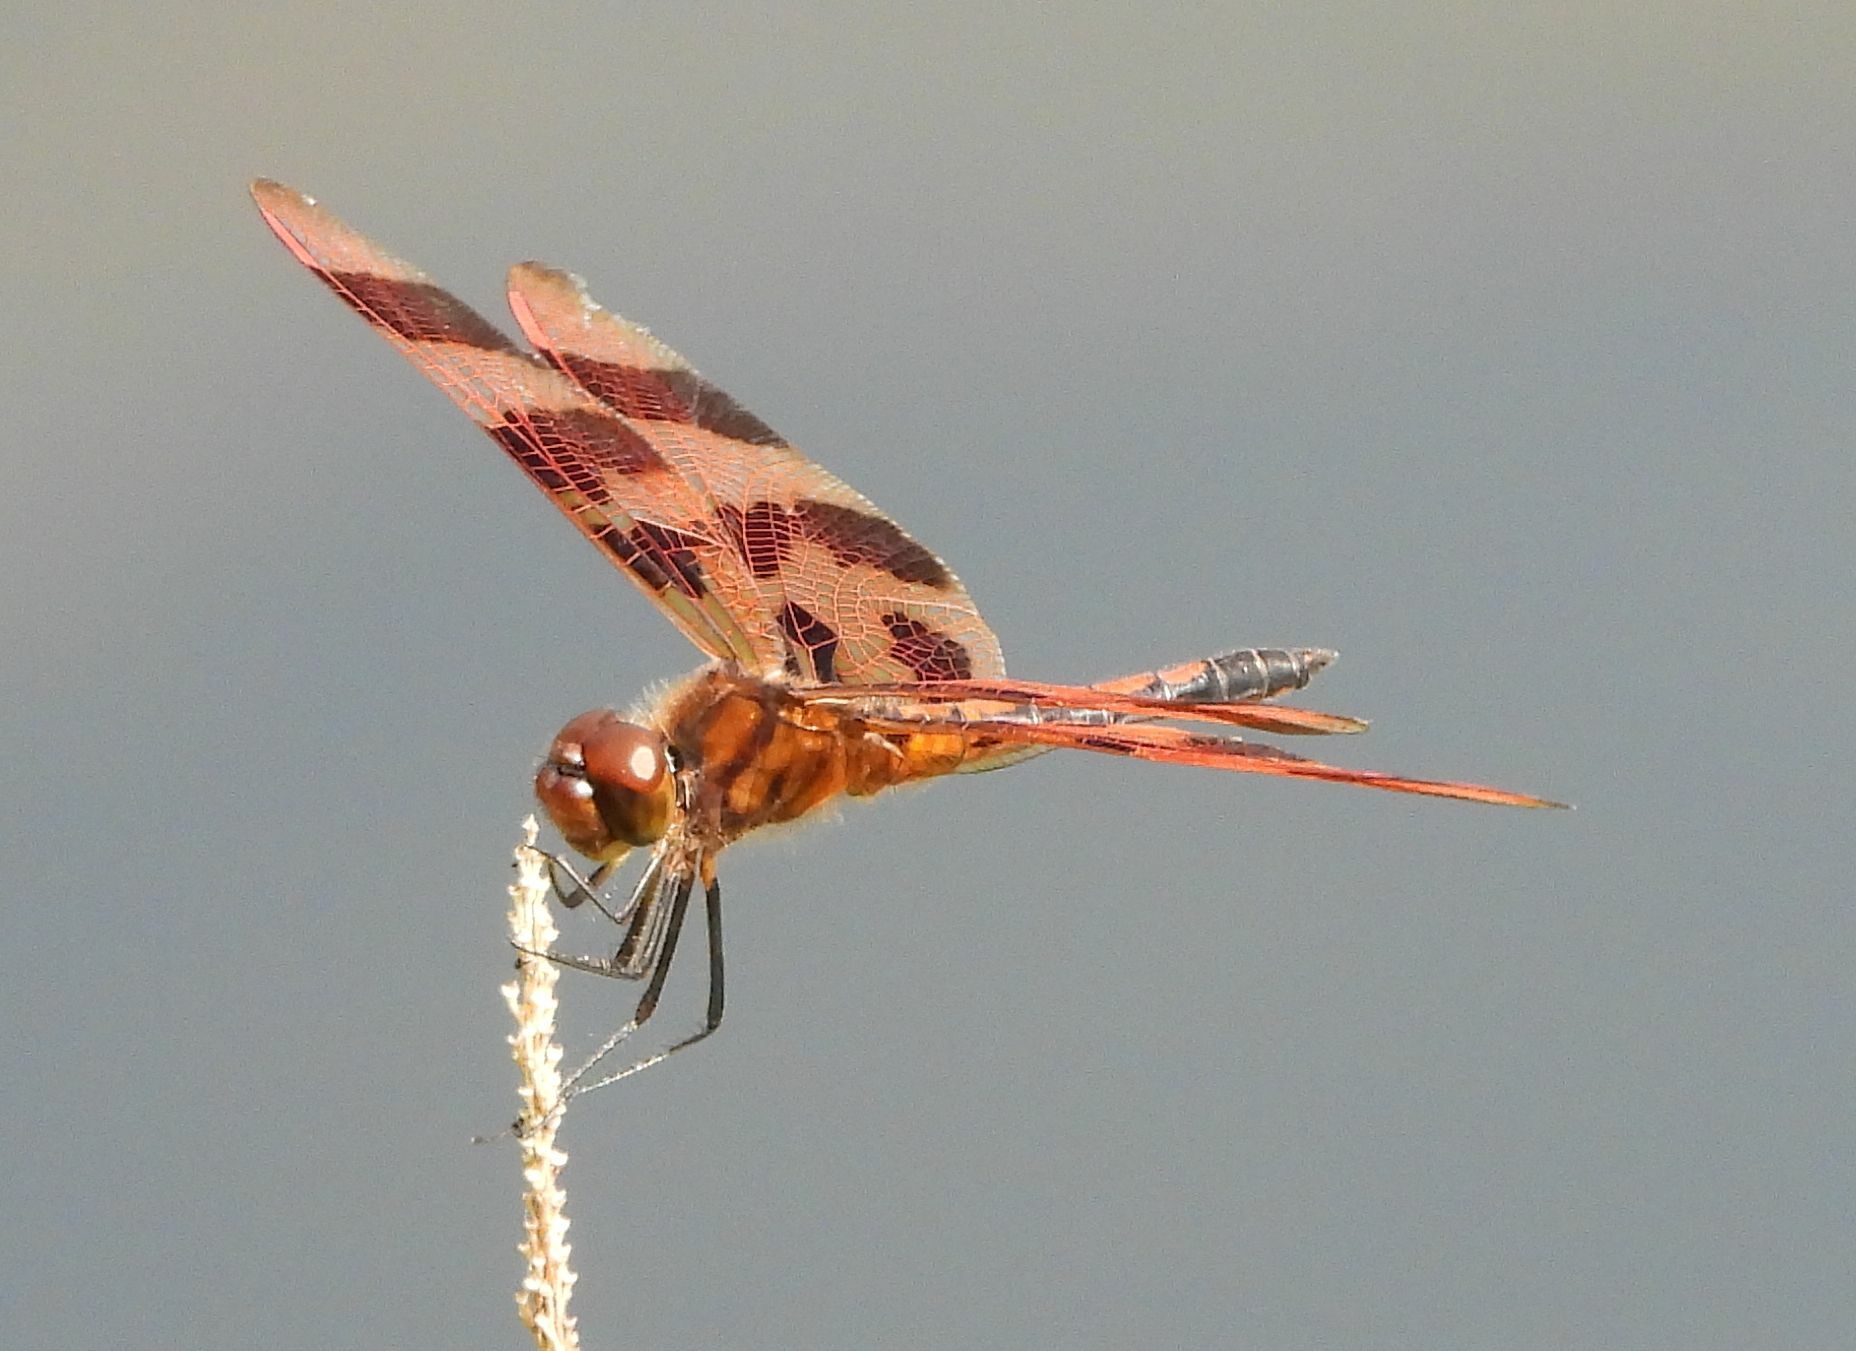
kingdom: Animalia
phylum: Arthropoda
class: Insecta
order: Odonata
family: Libellulidae
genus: Celithemis
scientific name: Celithemis eponina
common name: Halloween pennant
